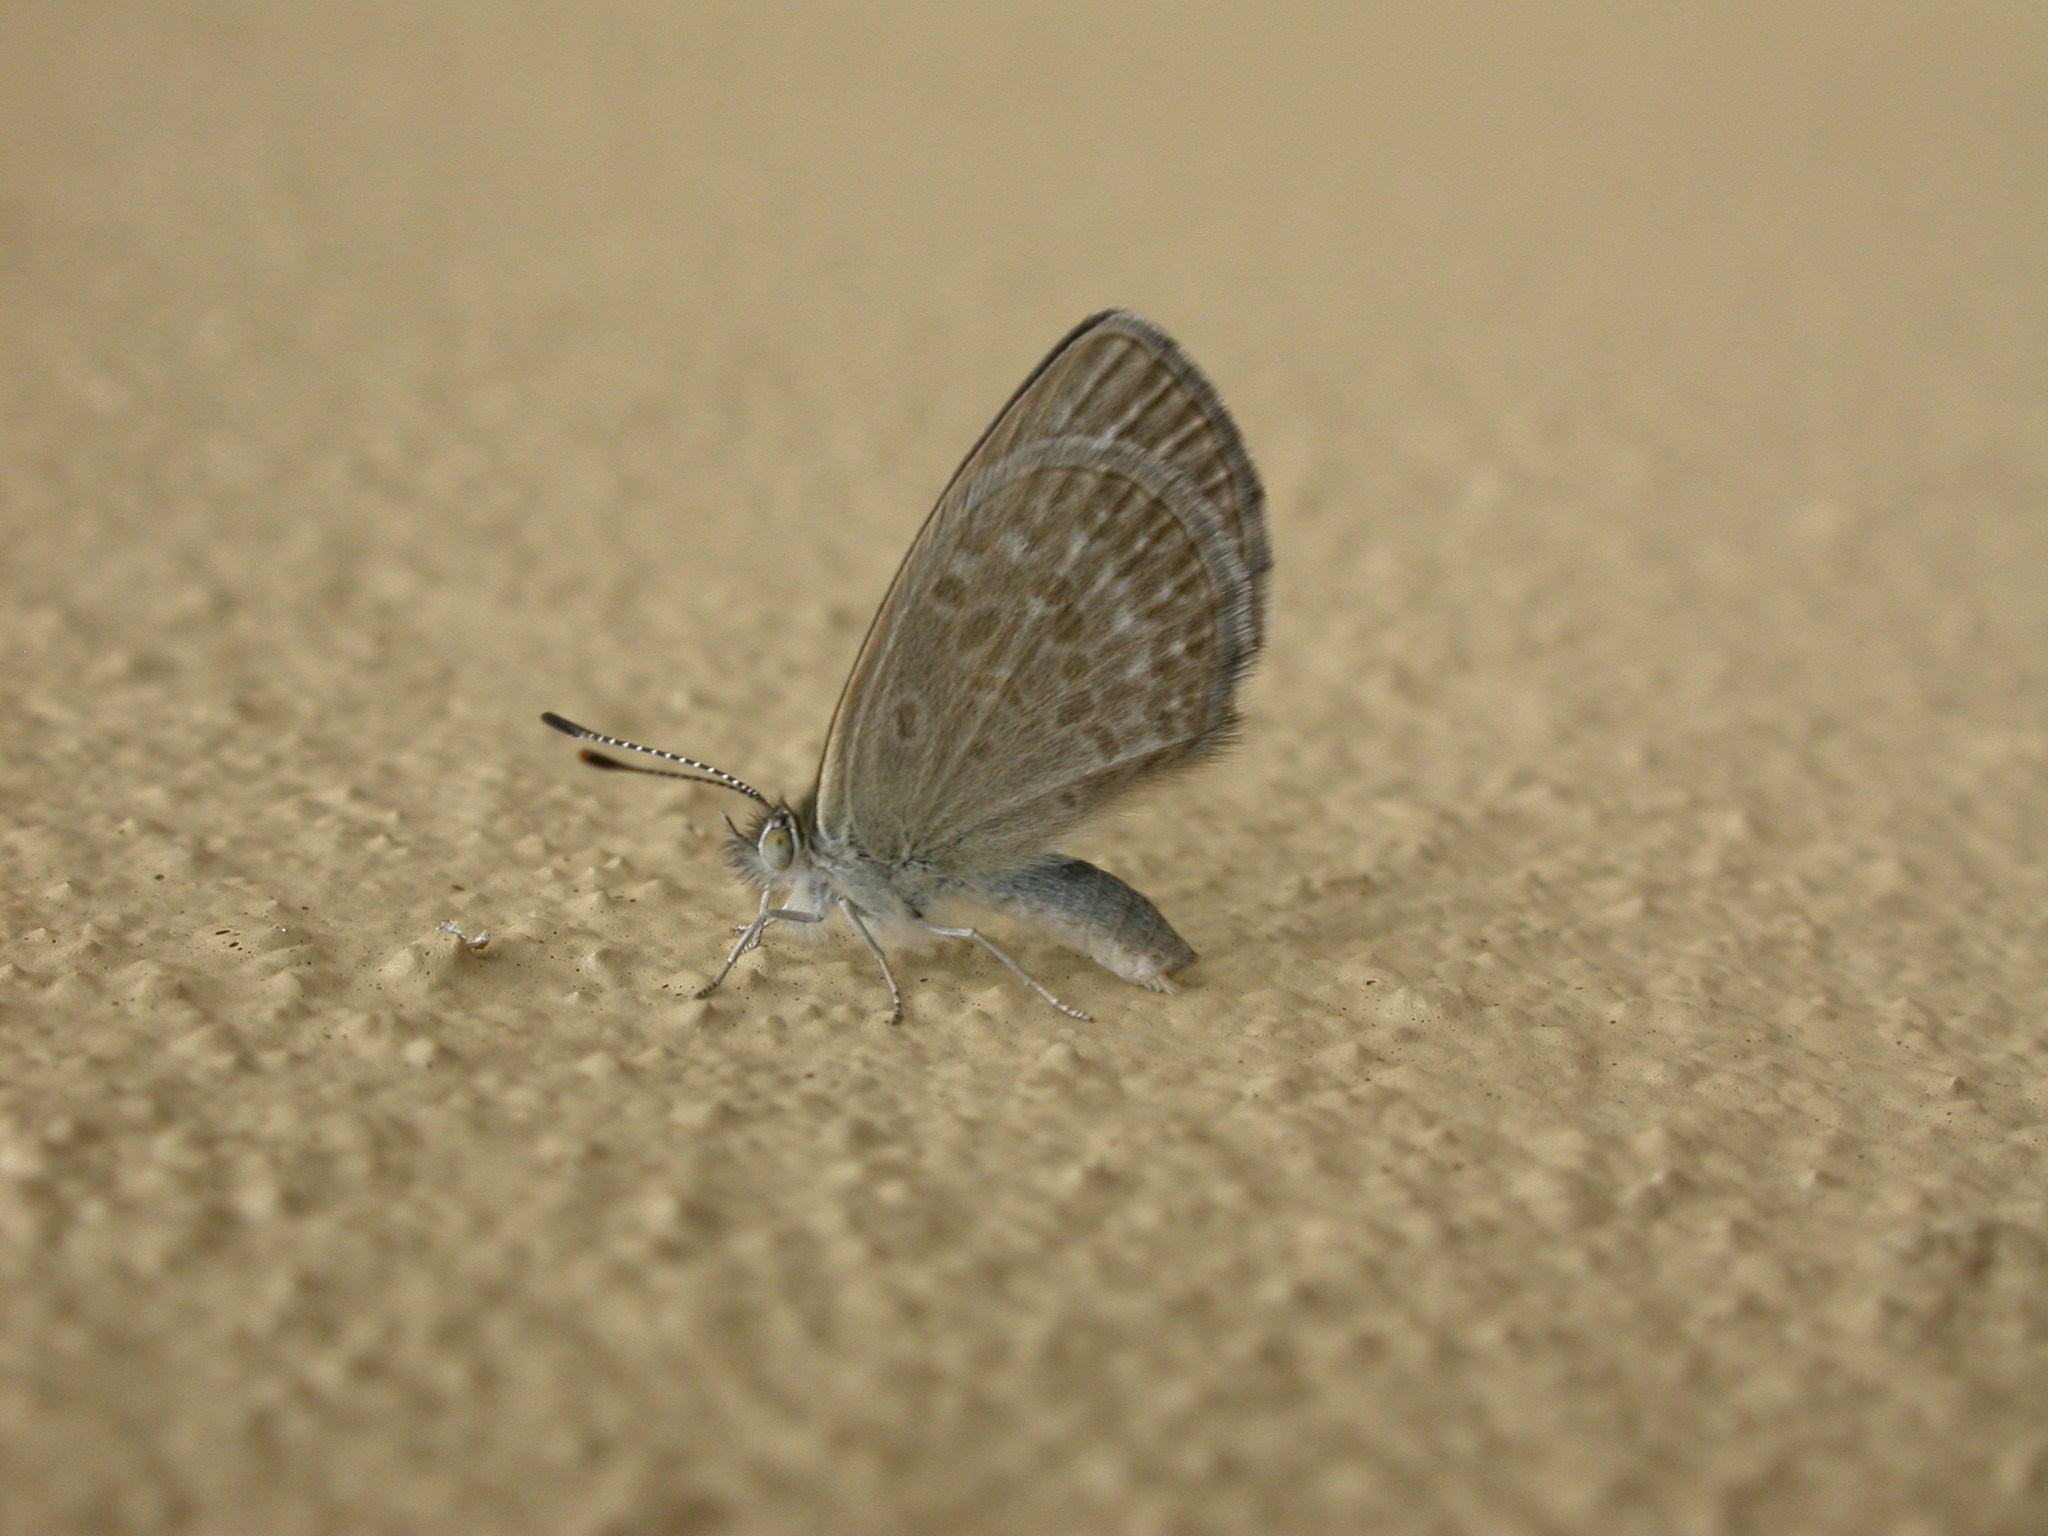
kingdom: Animalia
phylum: Arthropoda
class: Insecta
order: Lepidoptera
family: Lycaenidae
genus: Zizina
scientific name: Zizina labradus
